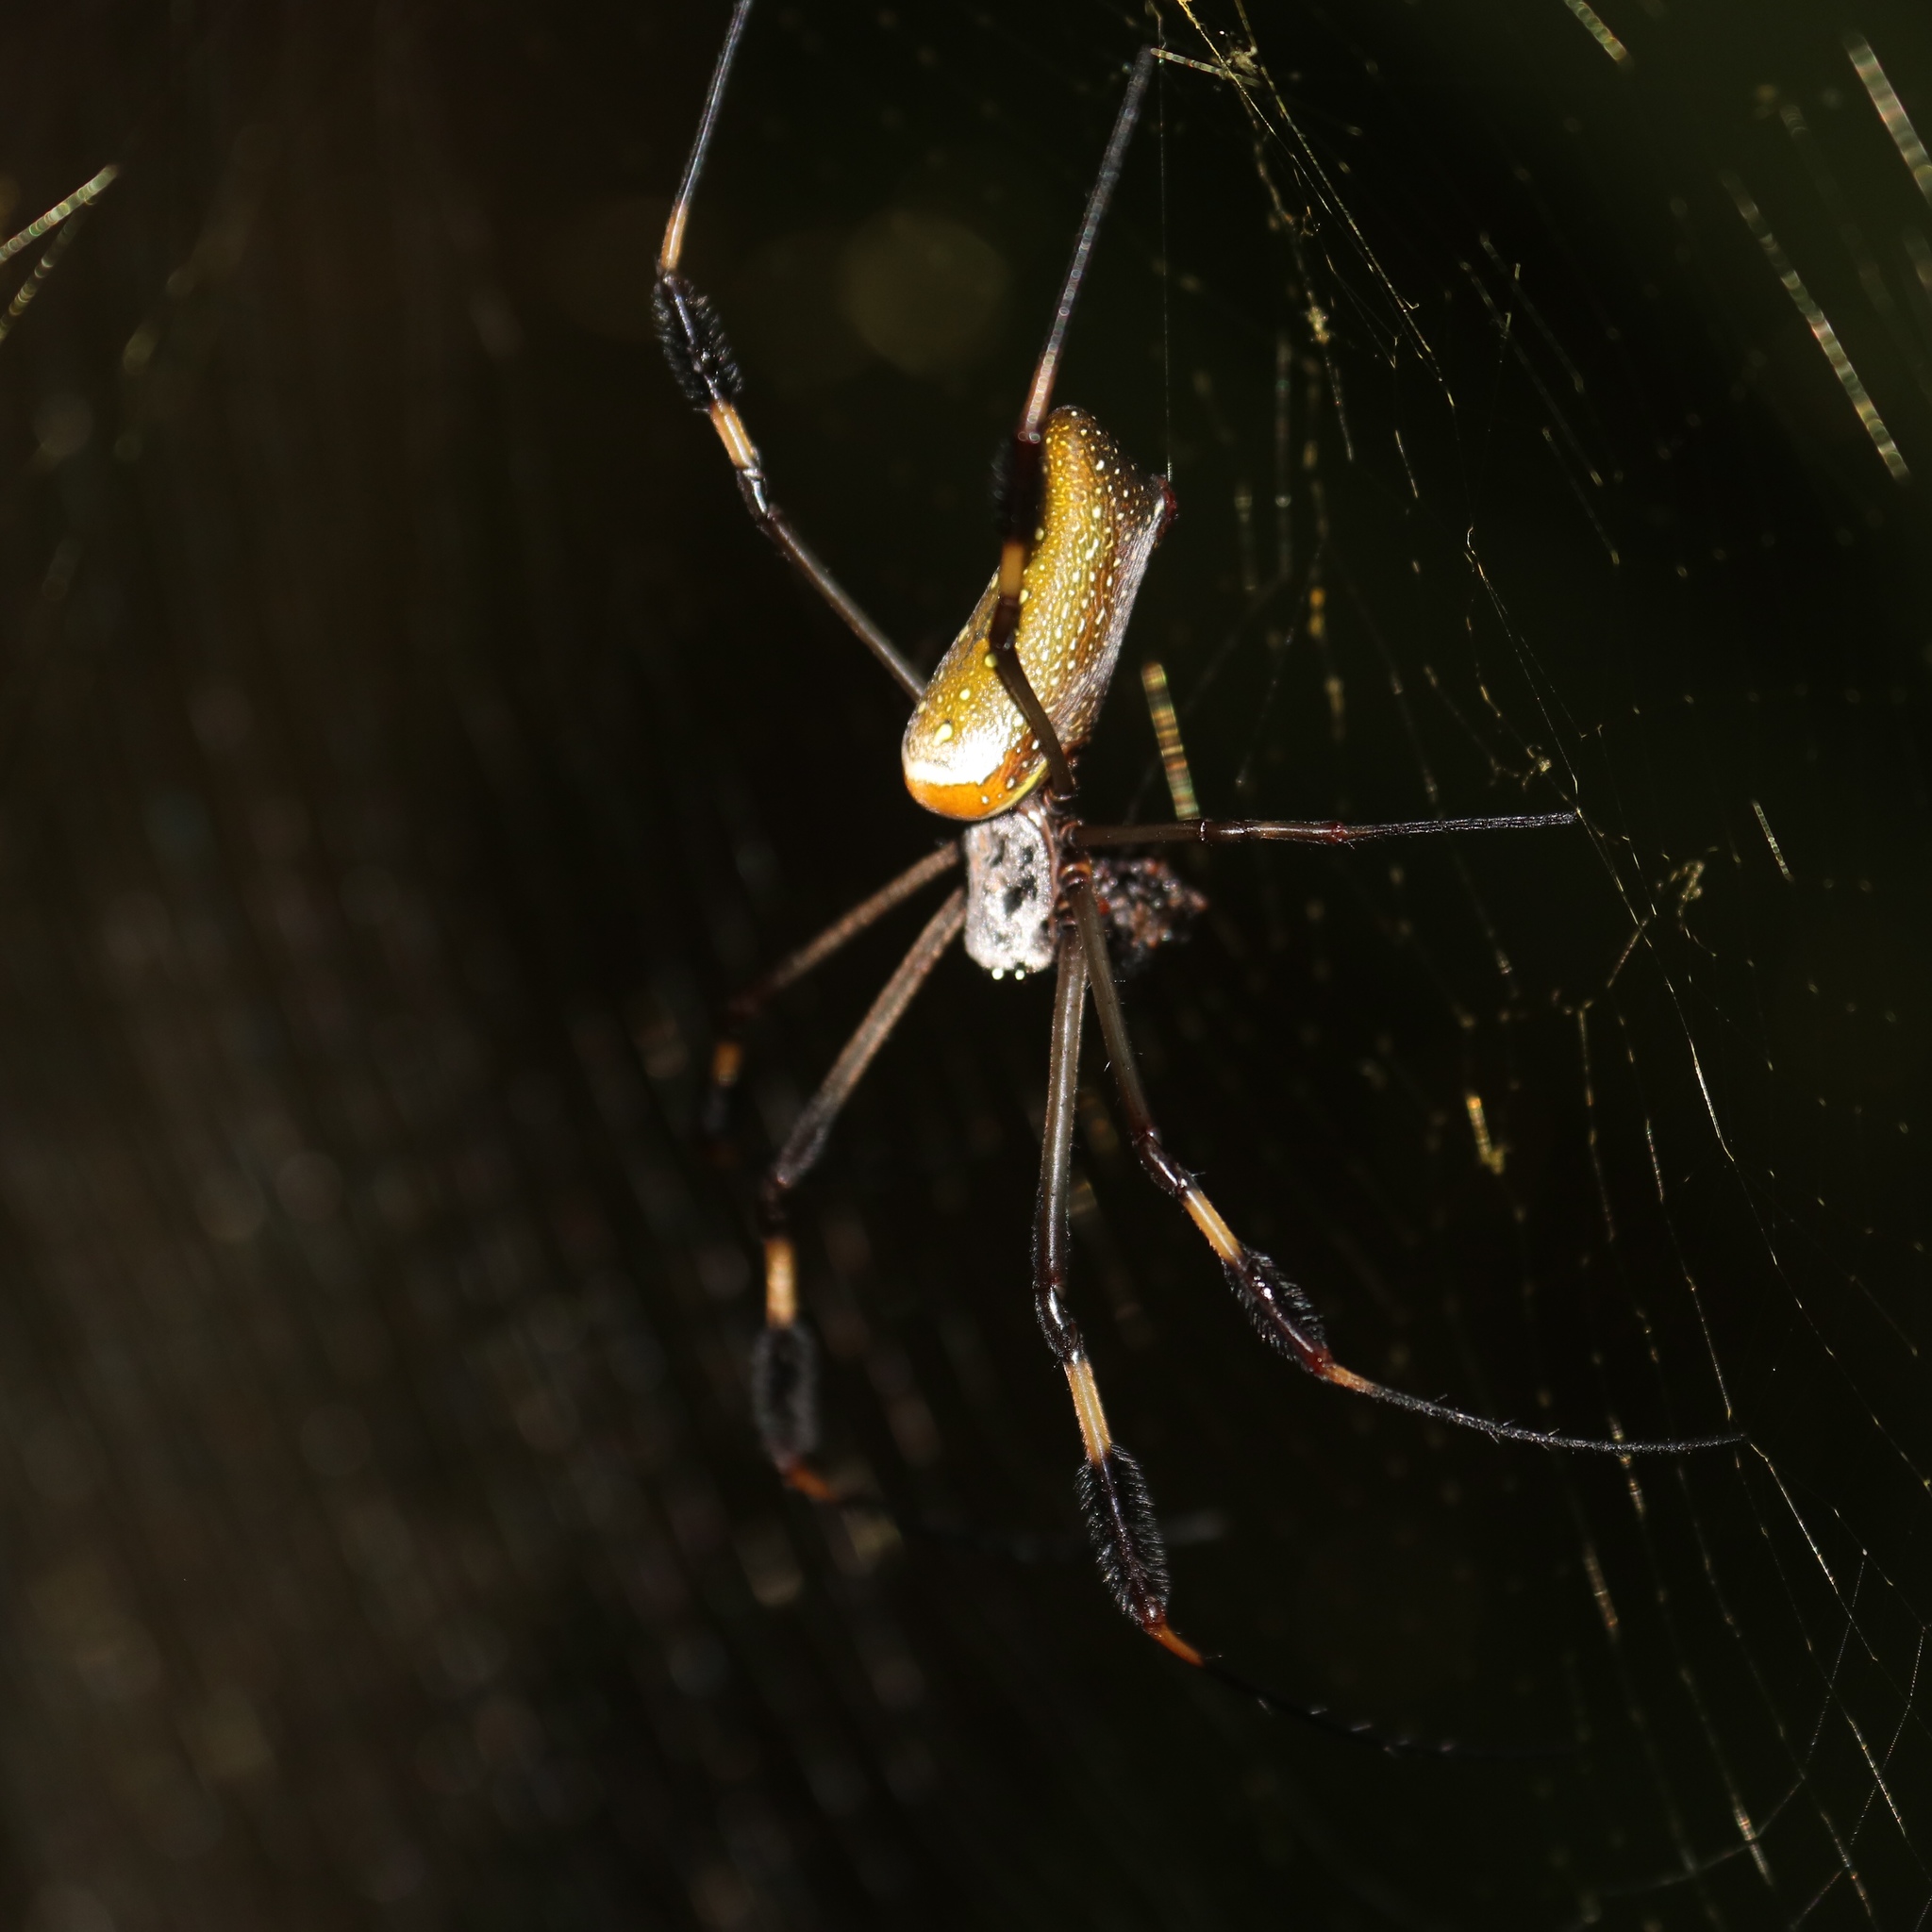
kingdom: Animalia
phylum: Arthropoda
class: Arachnida
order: Araneae
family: Araneidae
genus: Trichonephila
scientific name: Trichonephila clavipes
